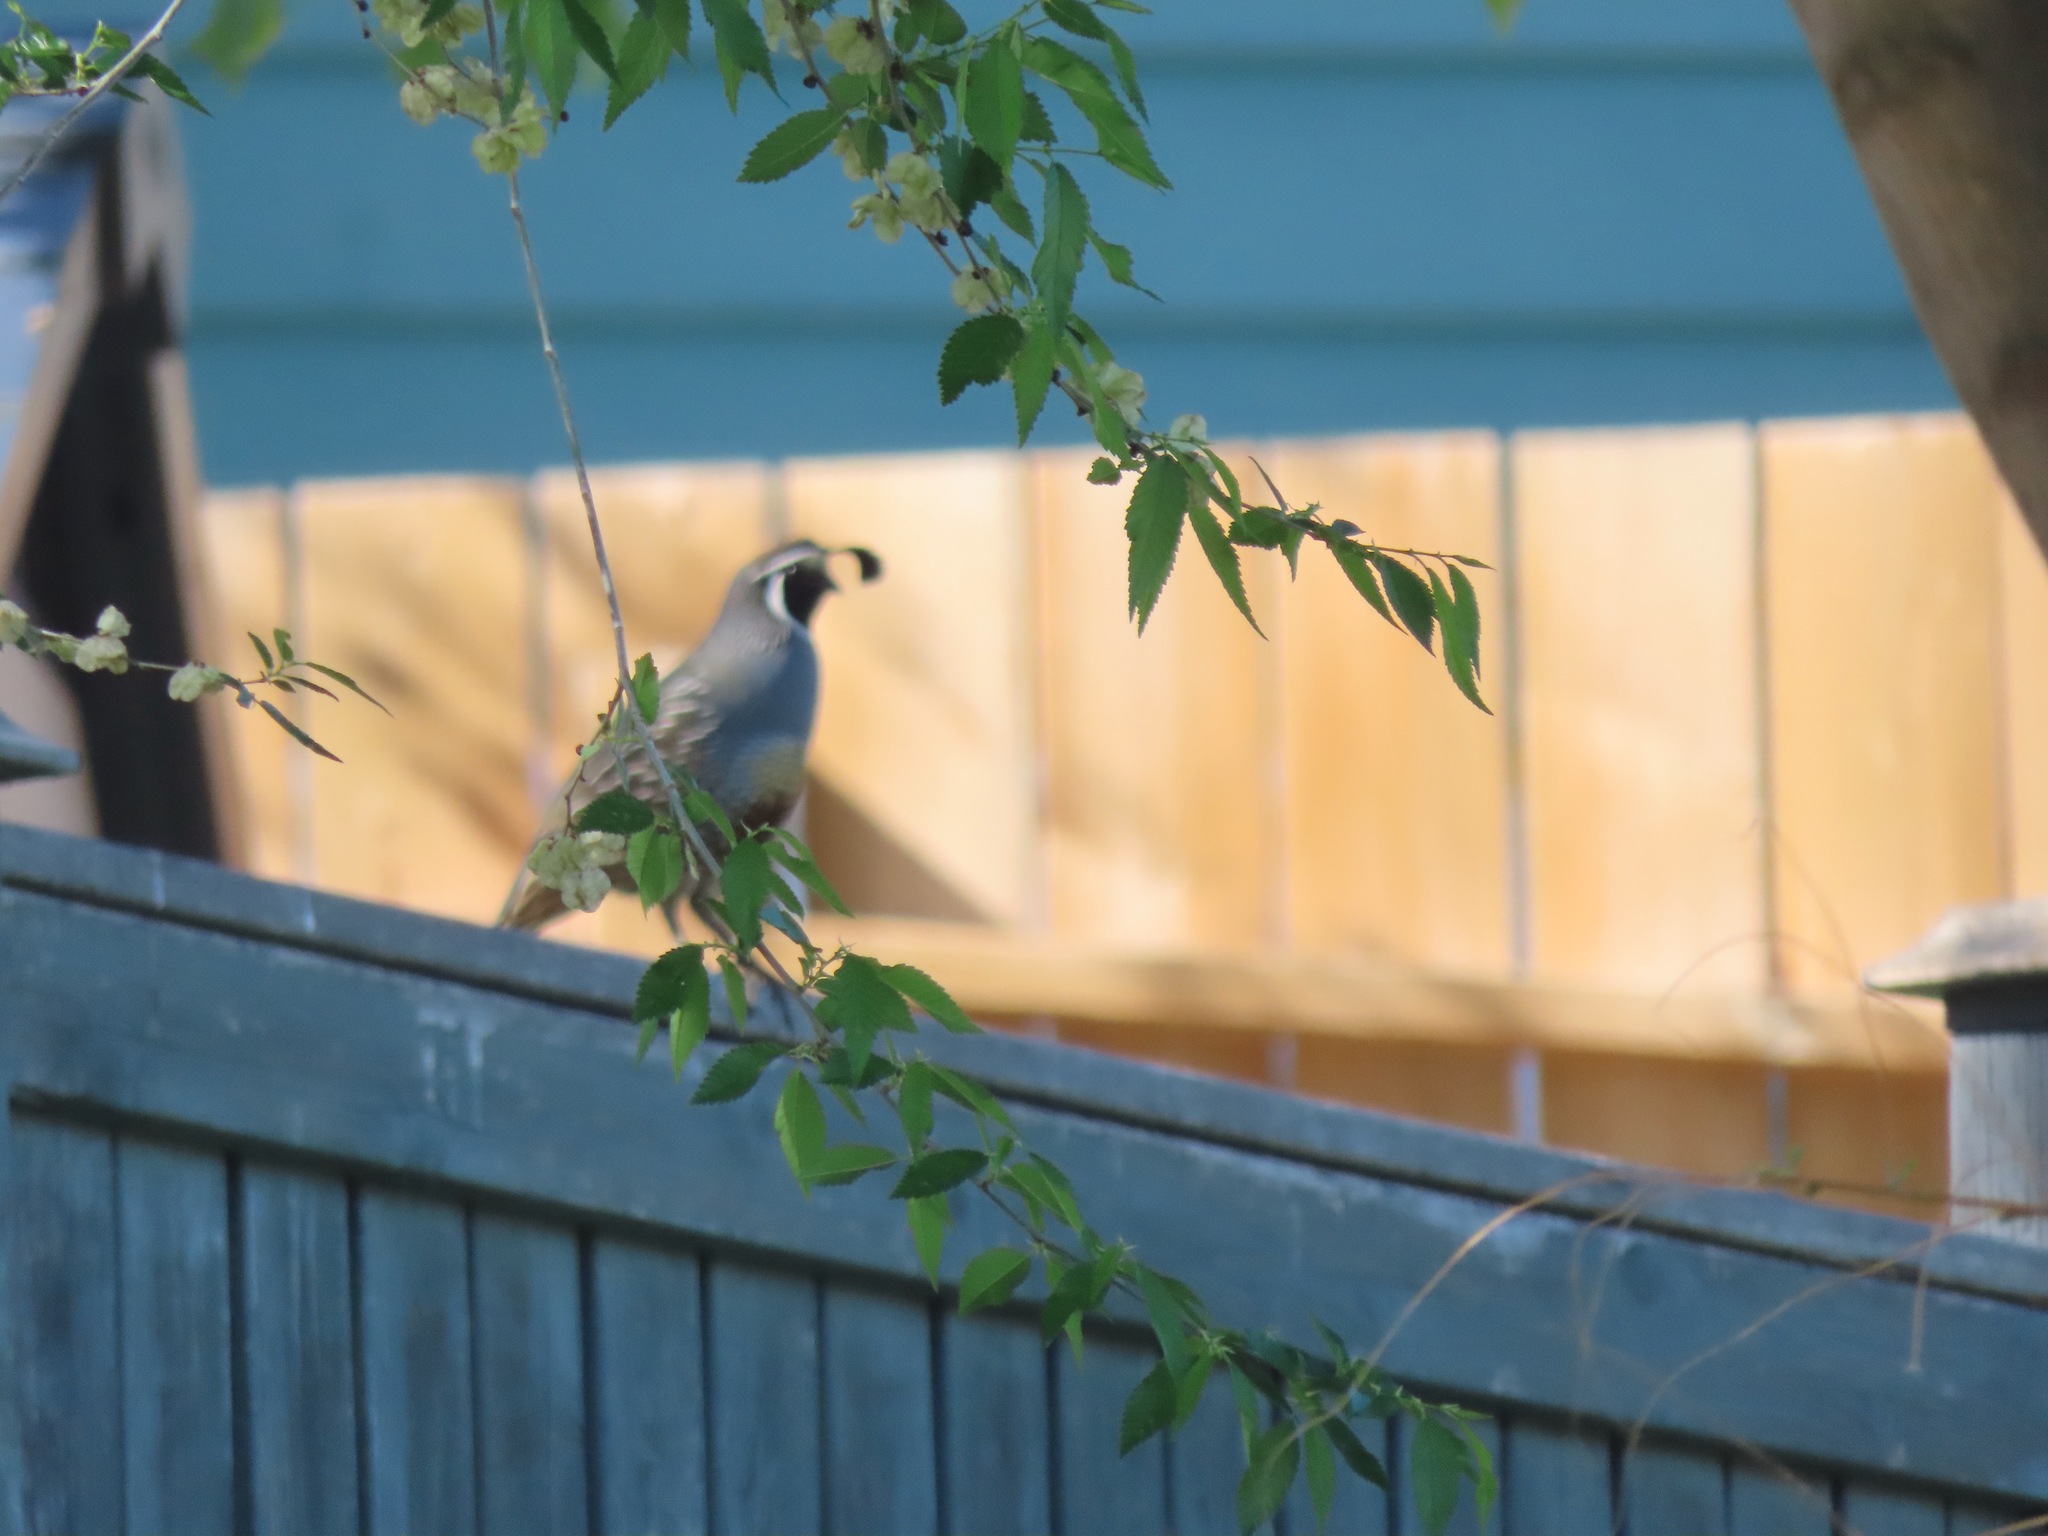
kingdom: Animalia
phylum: Chordata
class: Aves
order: Galliformes
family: Odontophoridae
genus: Callipepla
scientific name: Callipepla californica
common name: California quail
